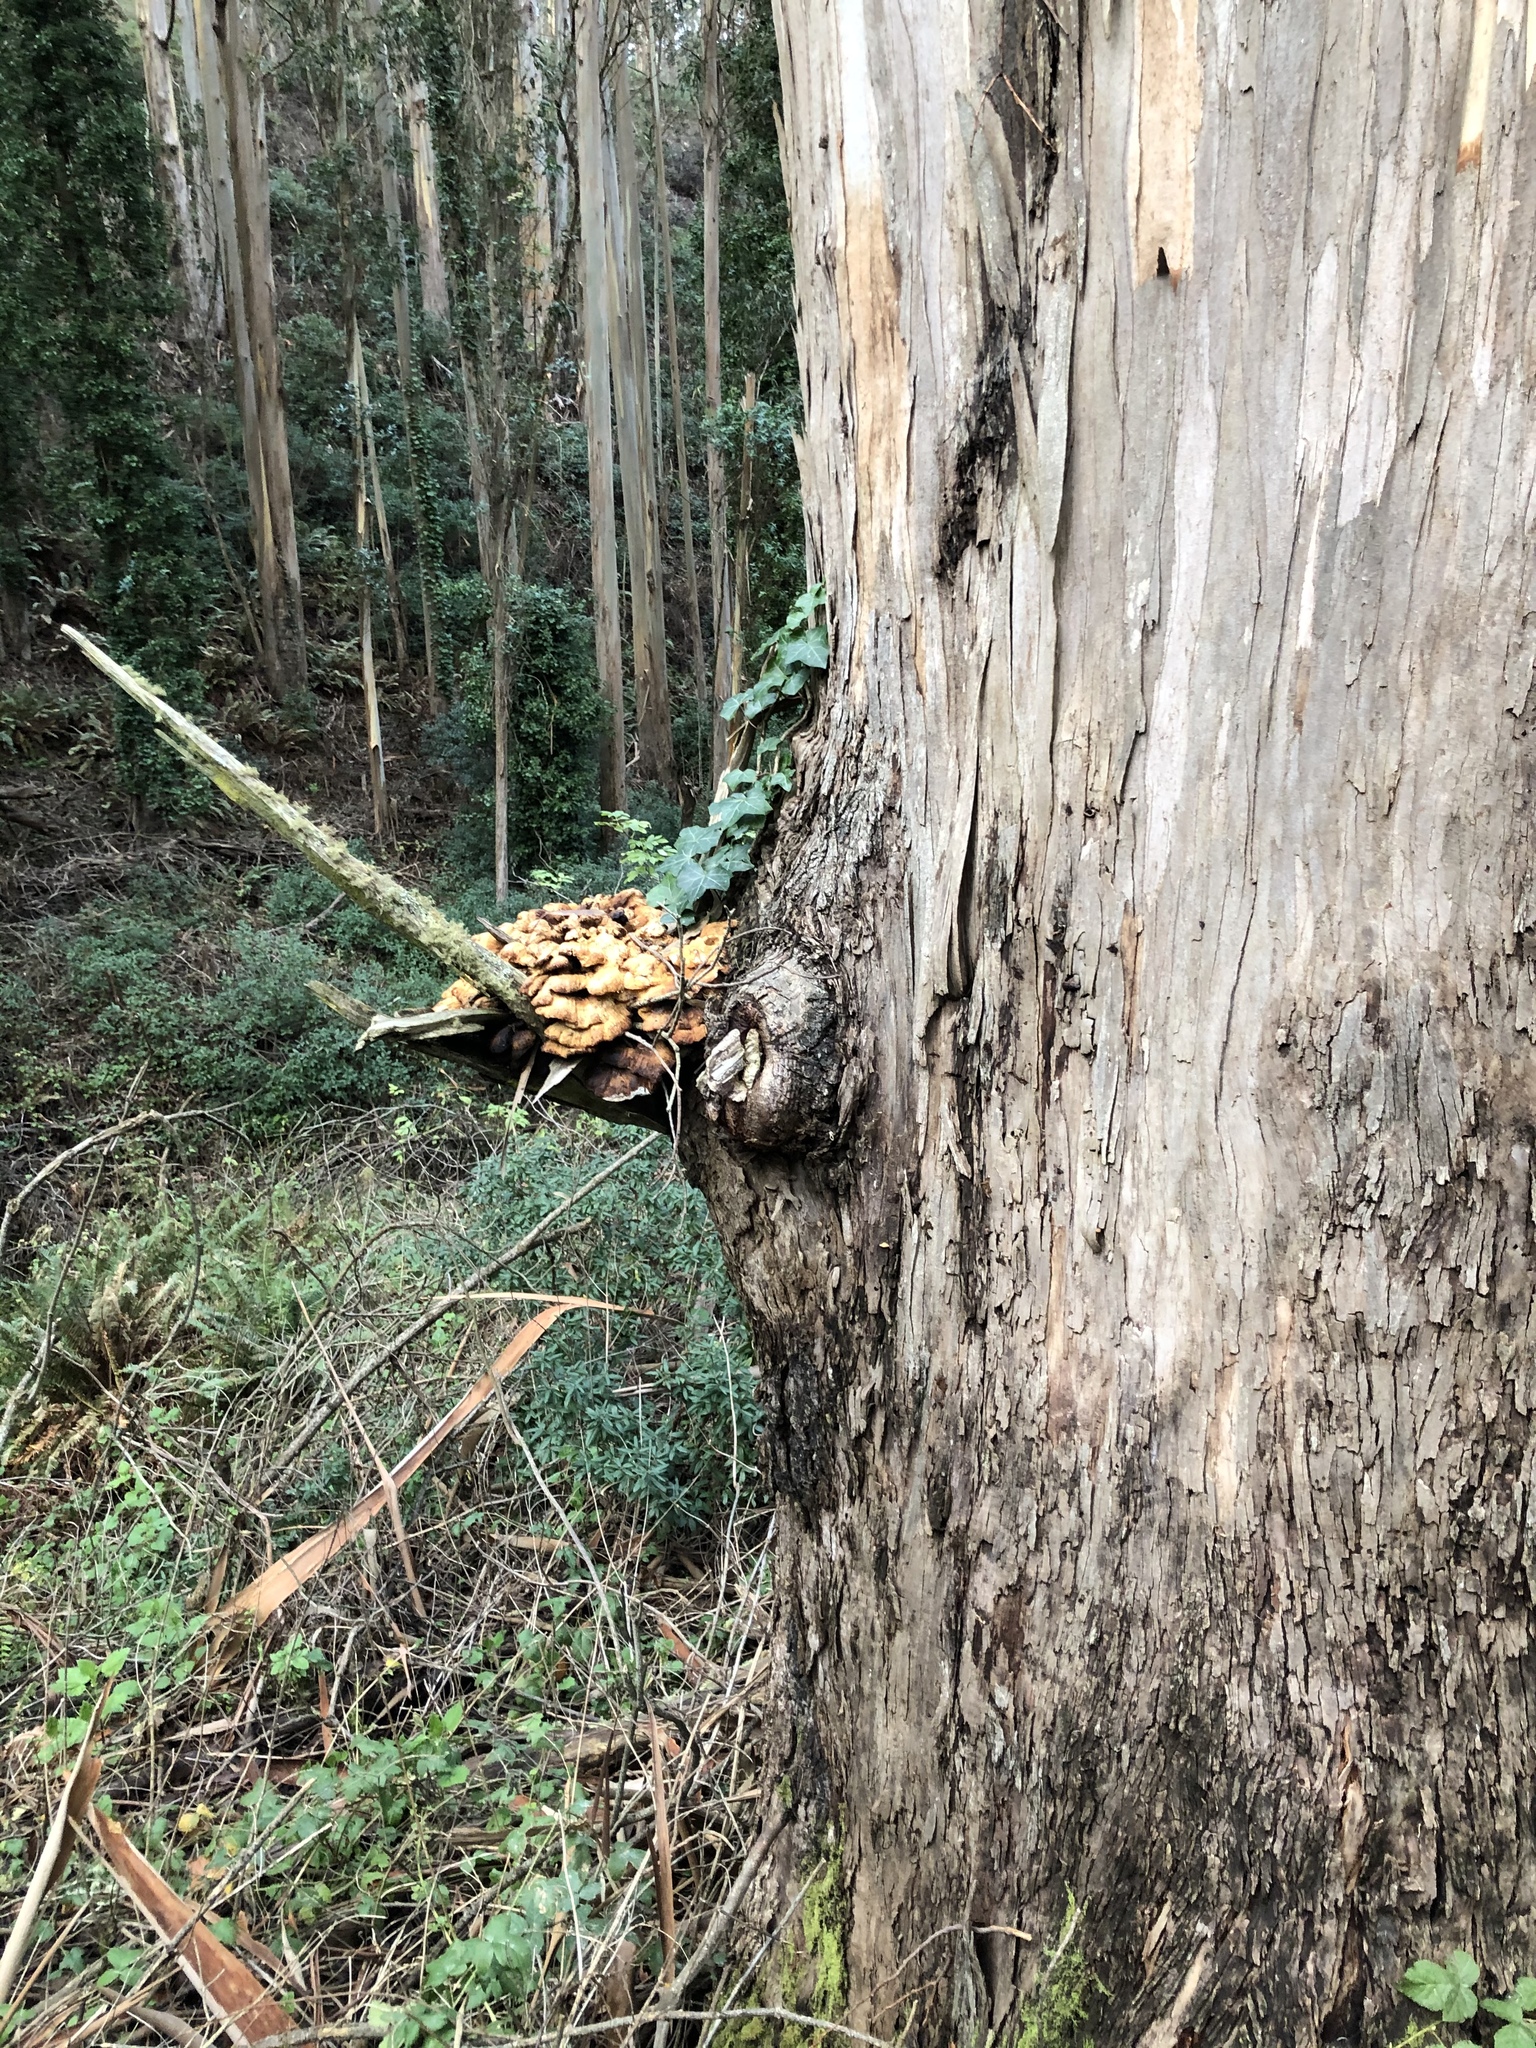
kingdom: Fungi
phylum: Basidiomycota
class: Agaricomycetes
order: Polyporales
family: Laetiporaceae
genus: Laetiporus
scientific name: Laetiporus gilbertsonii
